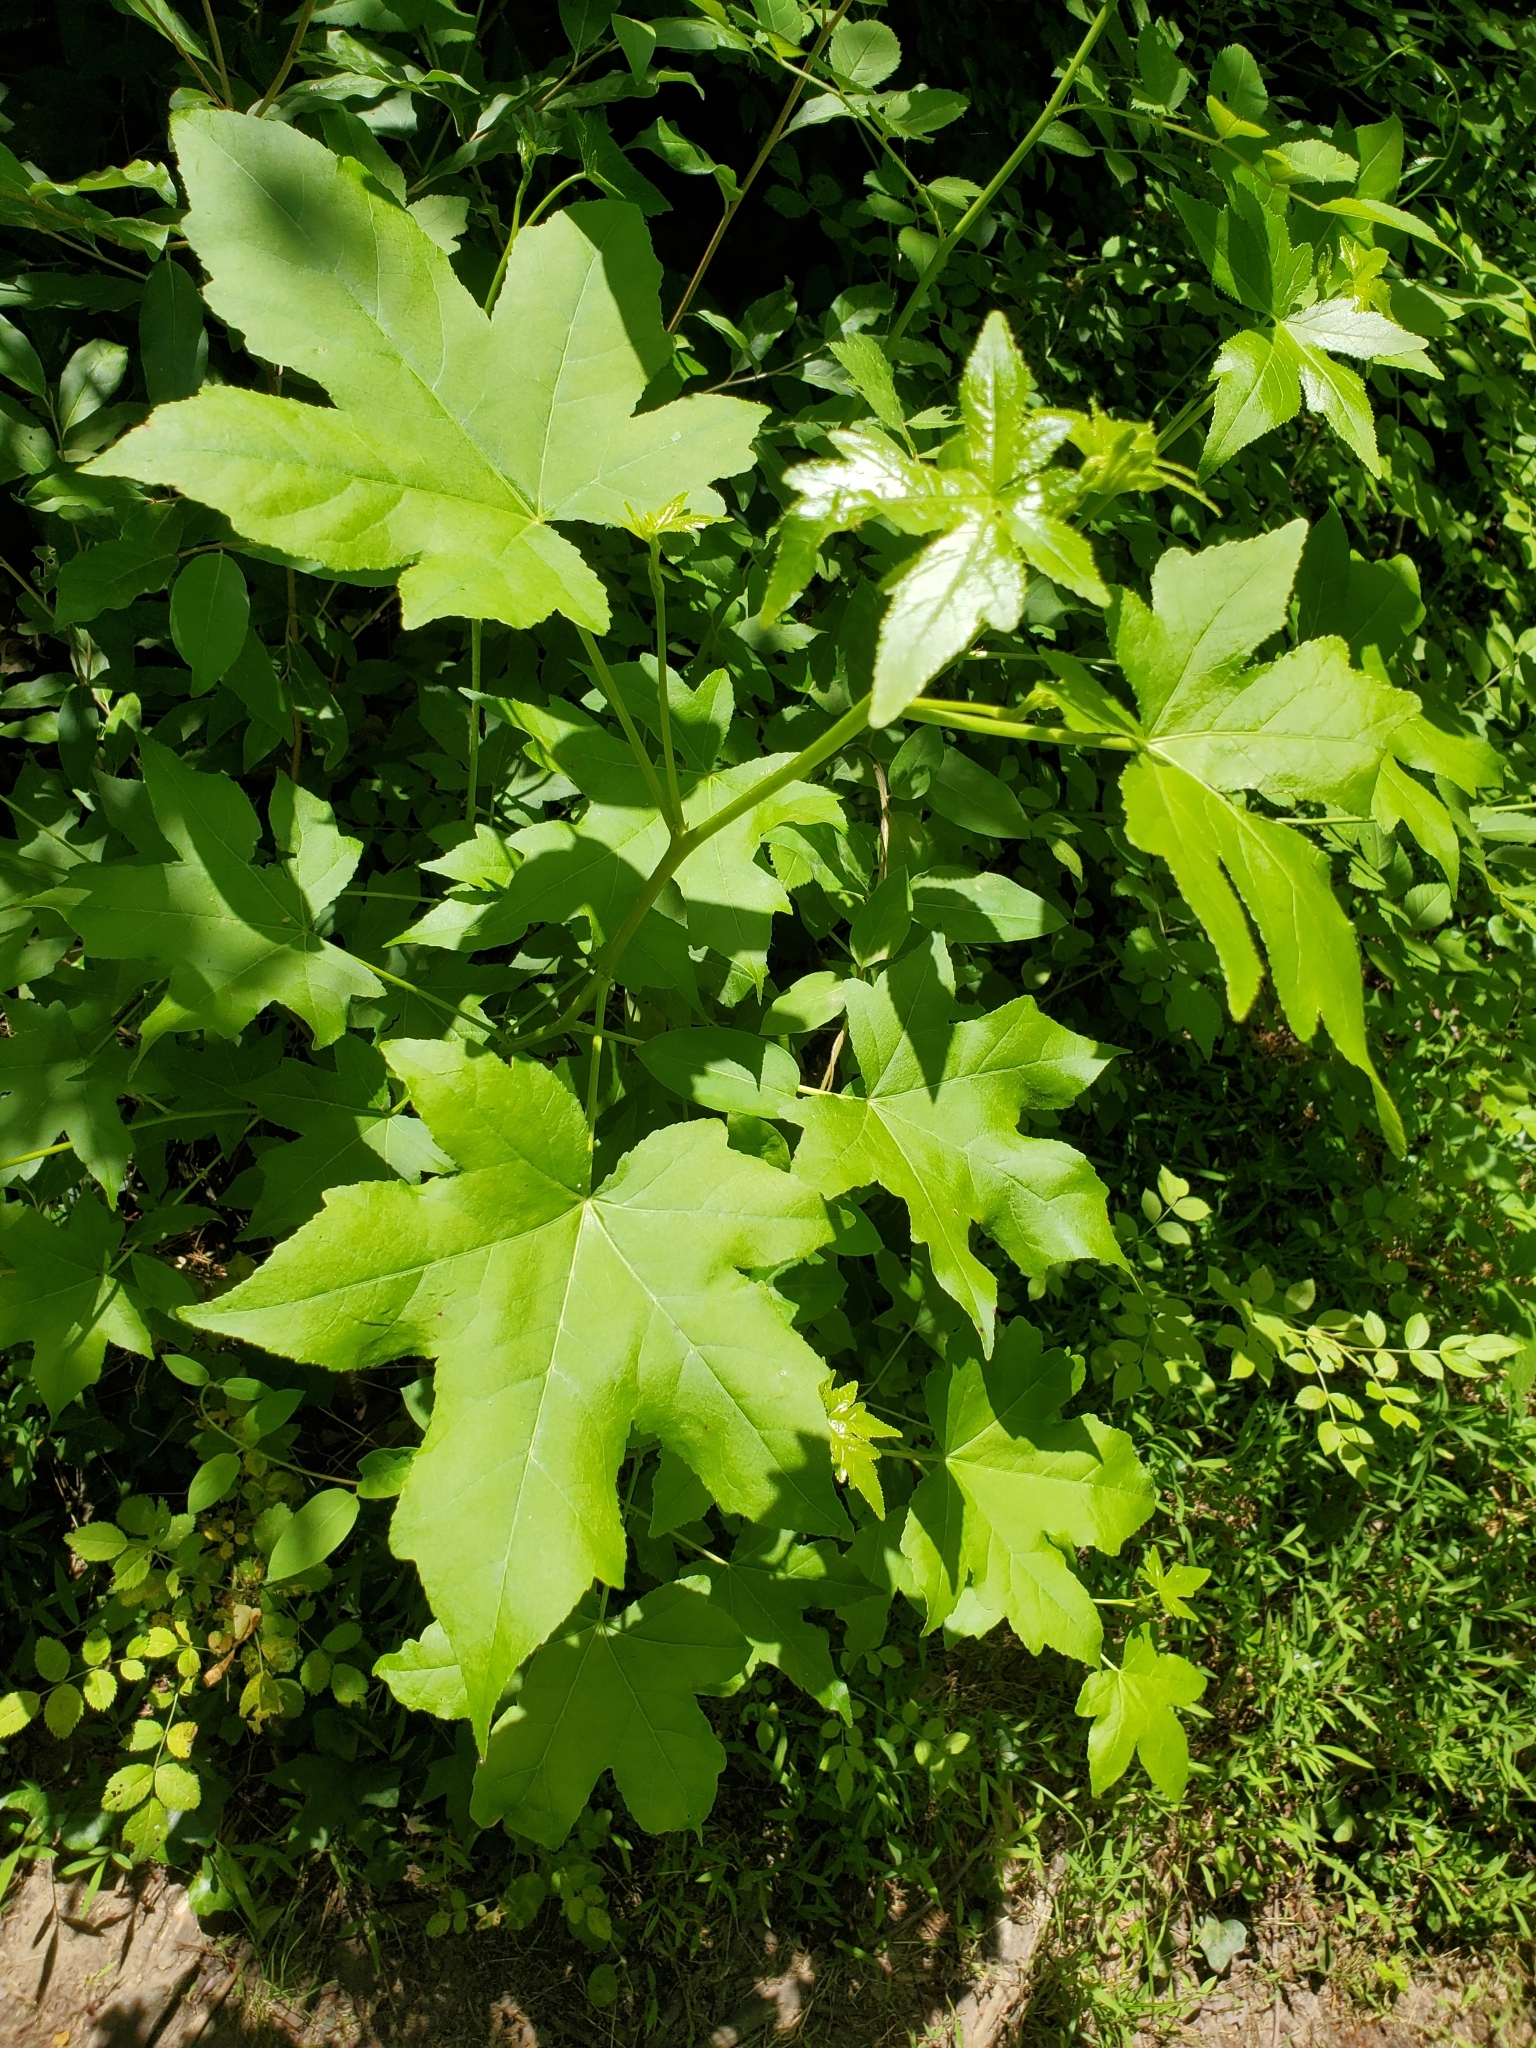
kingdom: Plantae
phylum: Tracheophyta
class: Magnoliopsida
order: Saxifragales
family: Altingiaceae
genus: Liquidambar
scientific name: Liquidambar styraciflua
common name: Sweet gum
